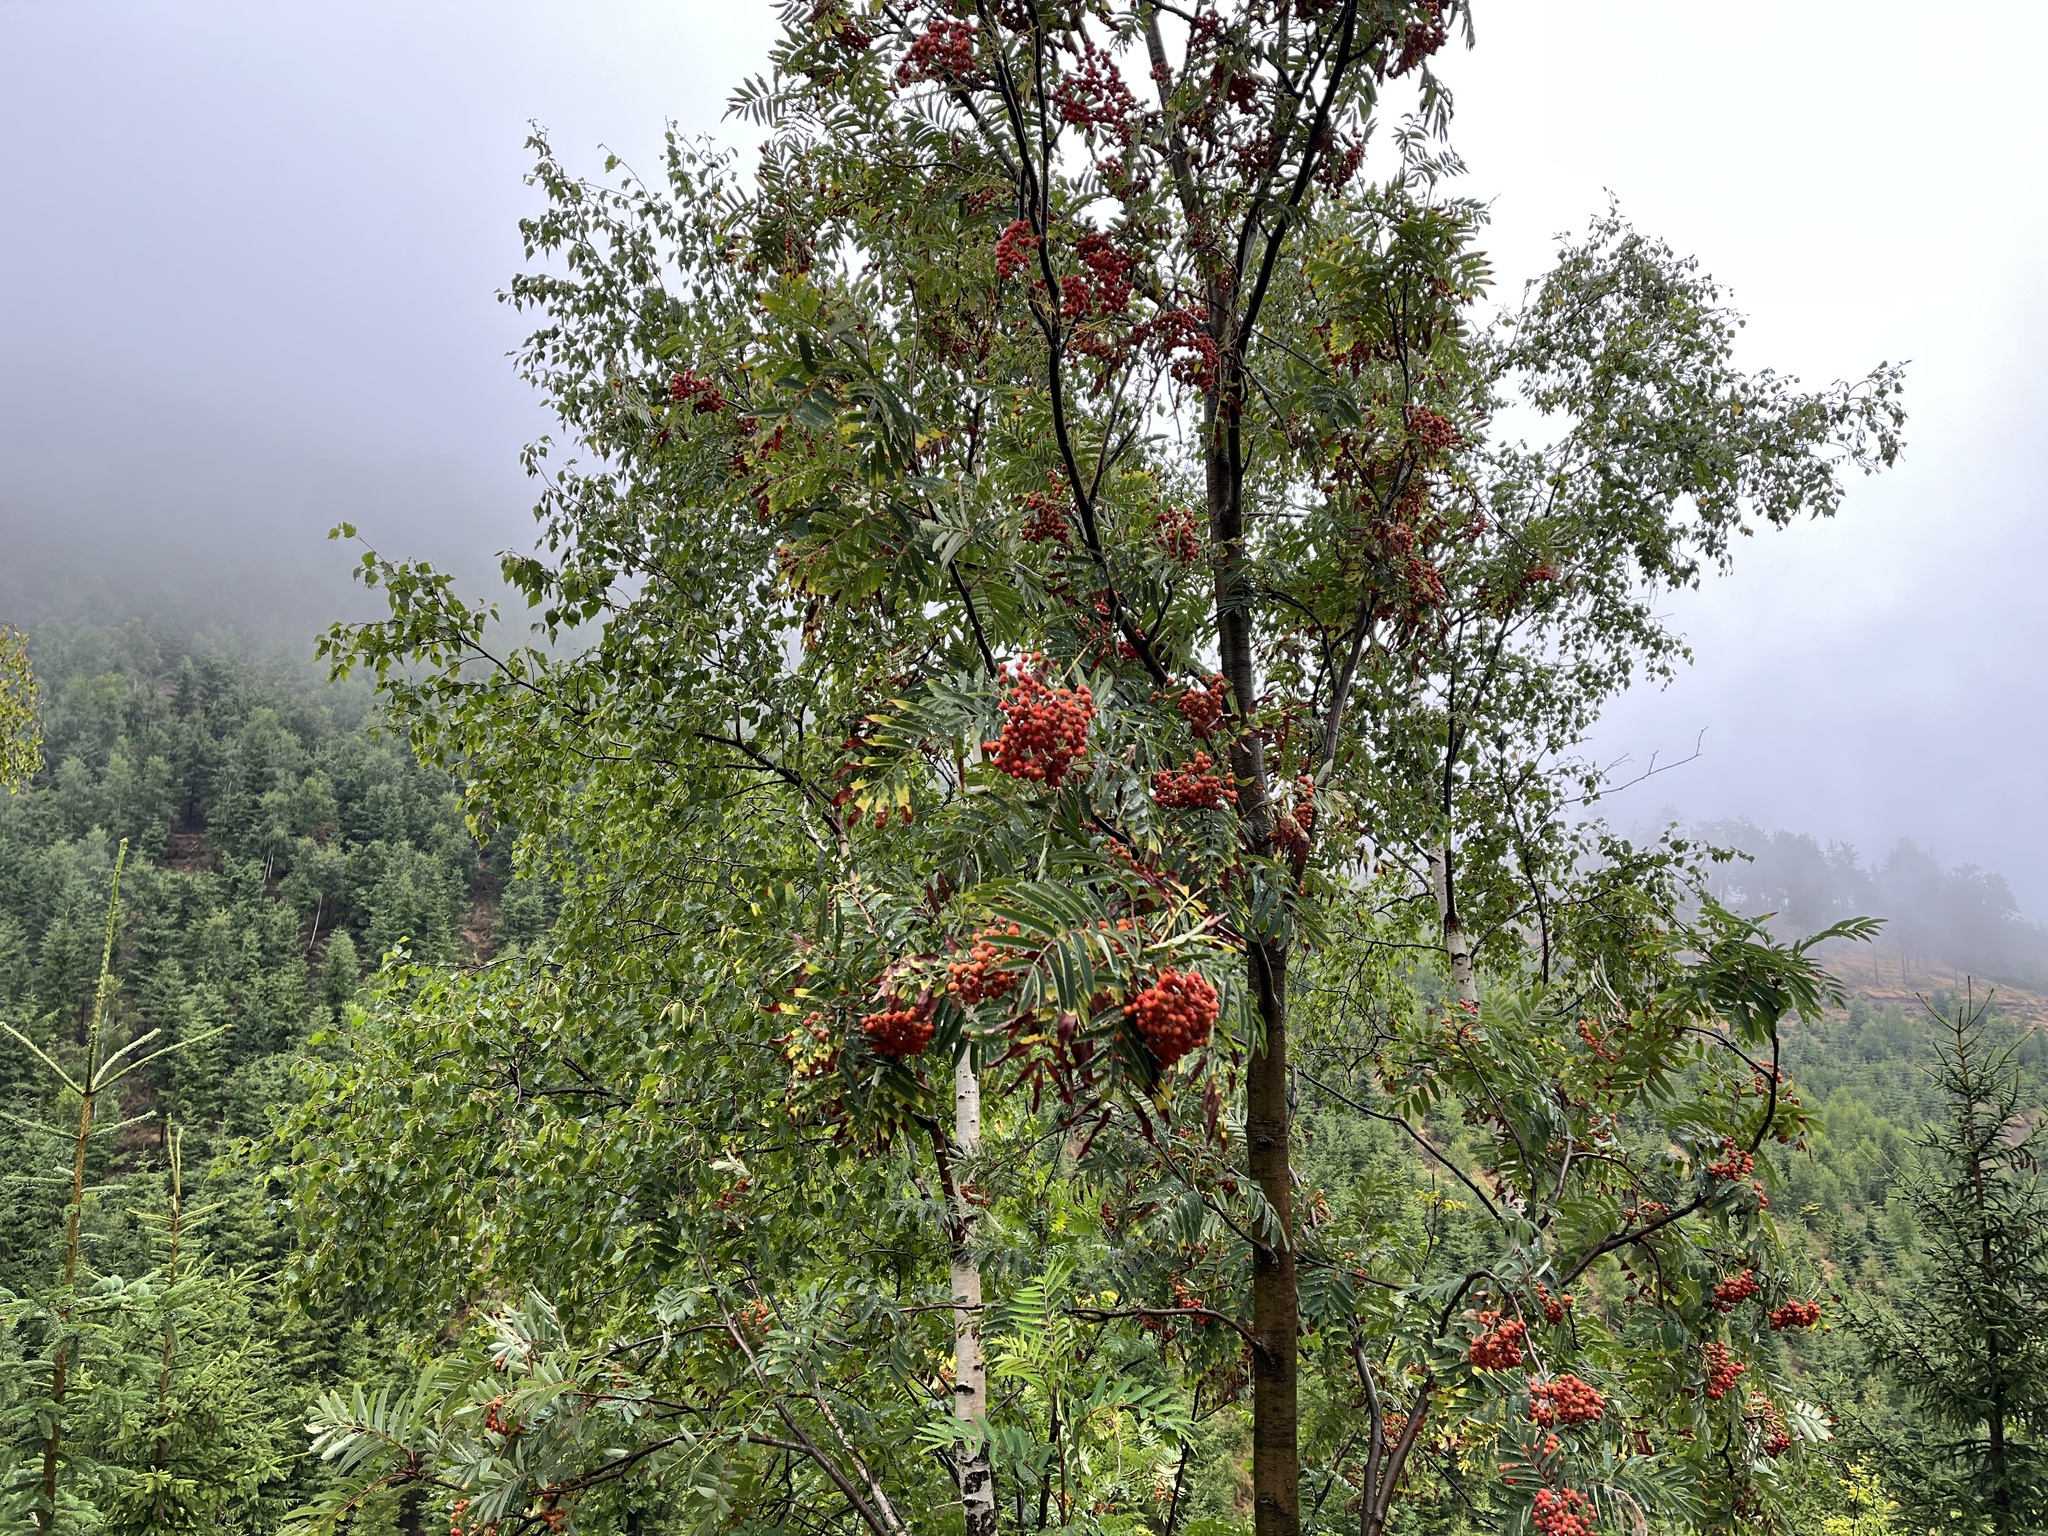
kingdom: Plantae
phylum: Tracheophyta
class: Magnoliopsida
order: Rosales
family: Rosaceae
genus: Sorbus
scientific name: Sorbus aucuparia
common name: Rowan
